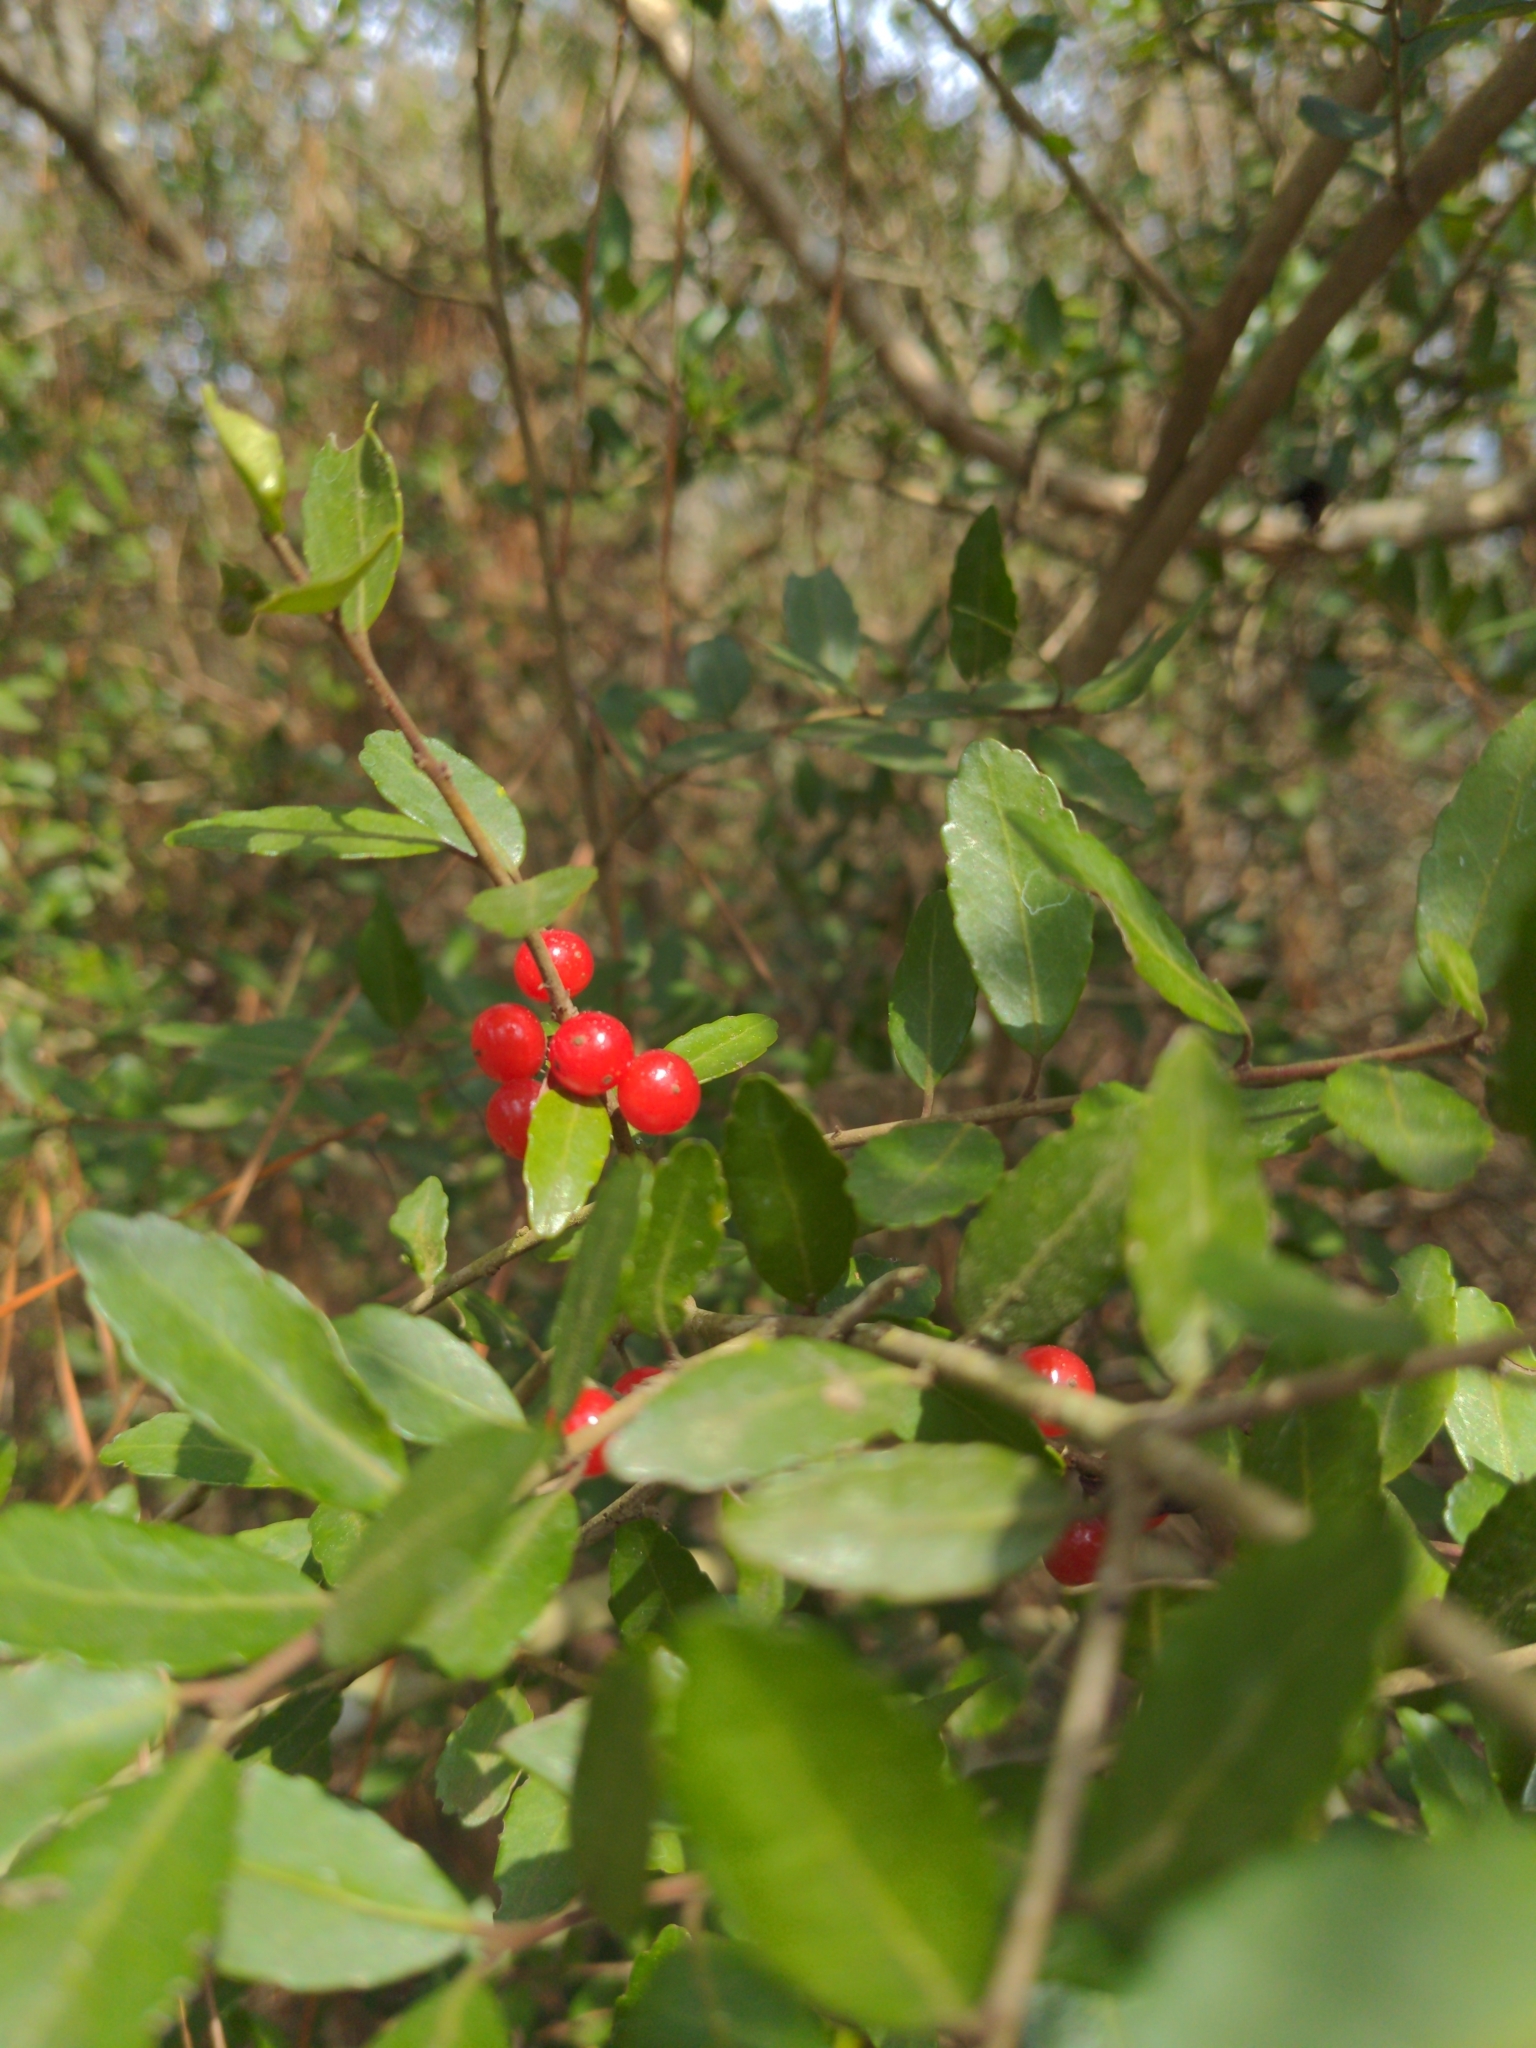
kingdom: Plantae
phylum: Tracheophyta
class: Magnoliopsida
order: Aquifoliales
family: Aquifoliaceae
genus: Ilex
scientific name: Ilex vomitoria
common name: Yaupon holly
